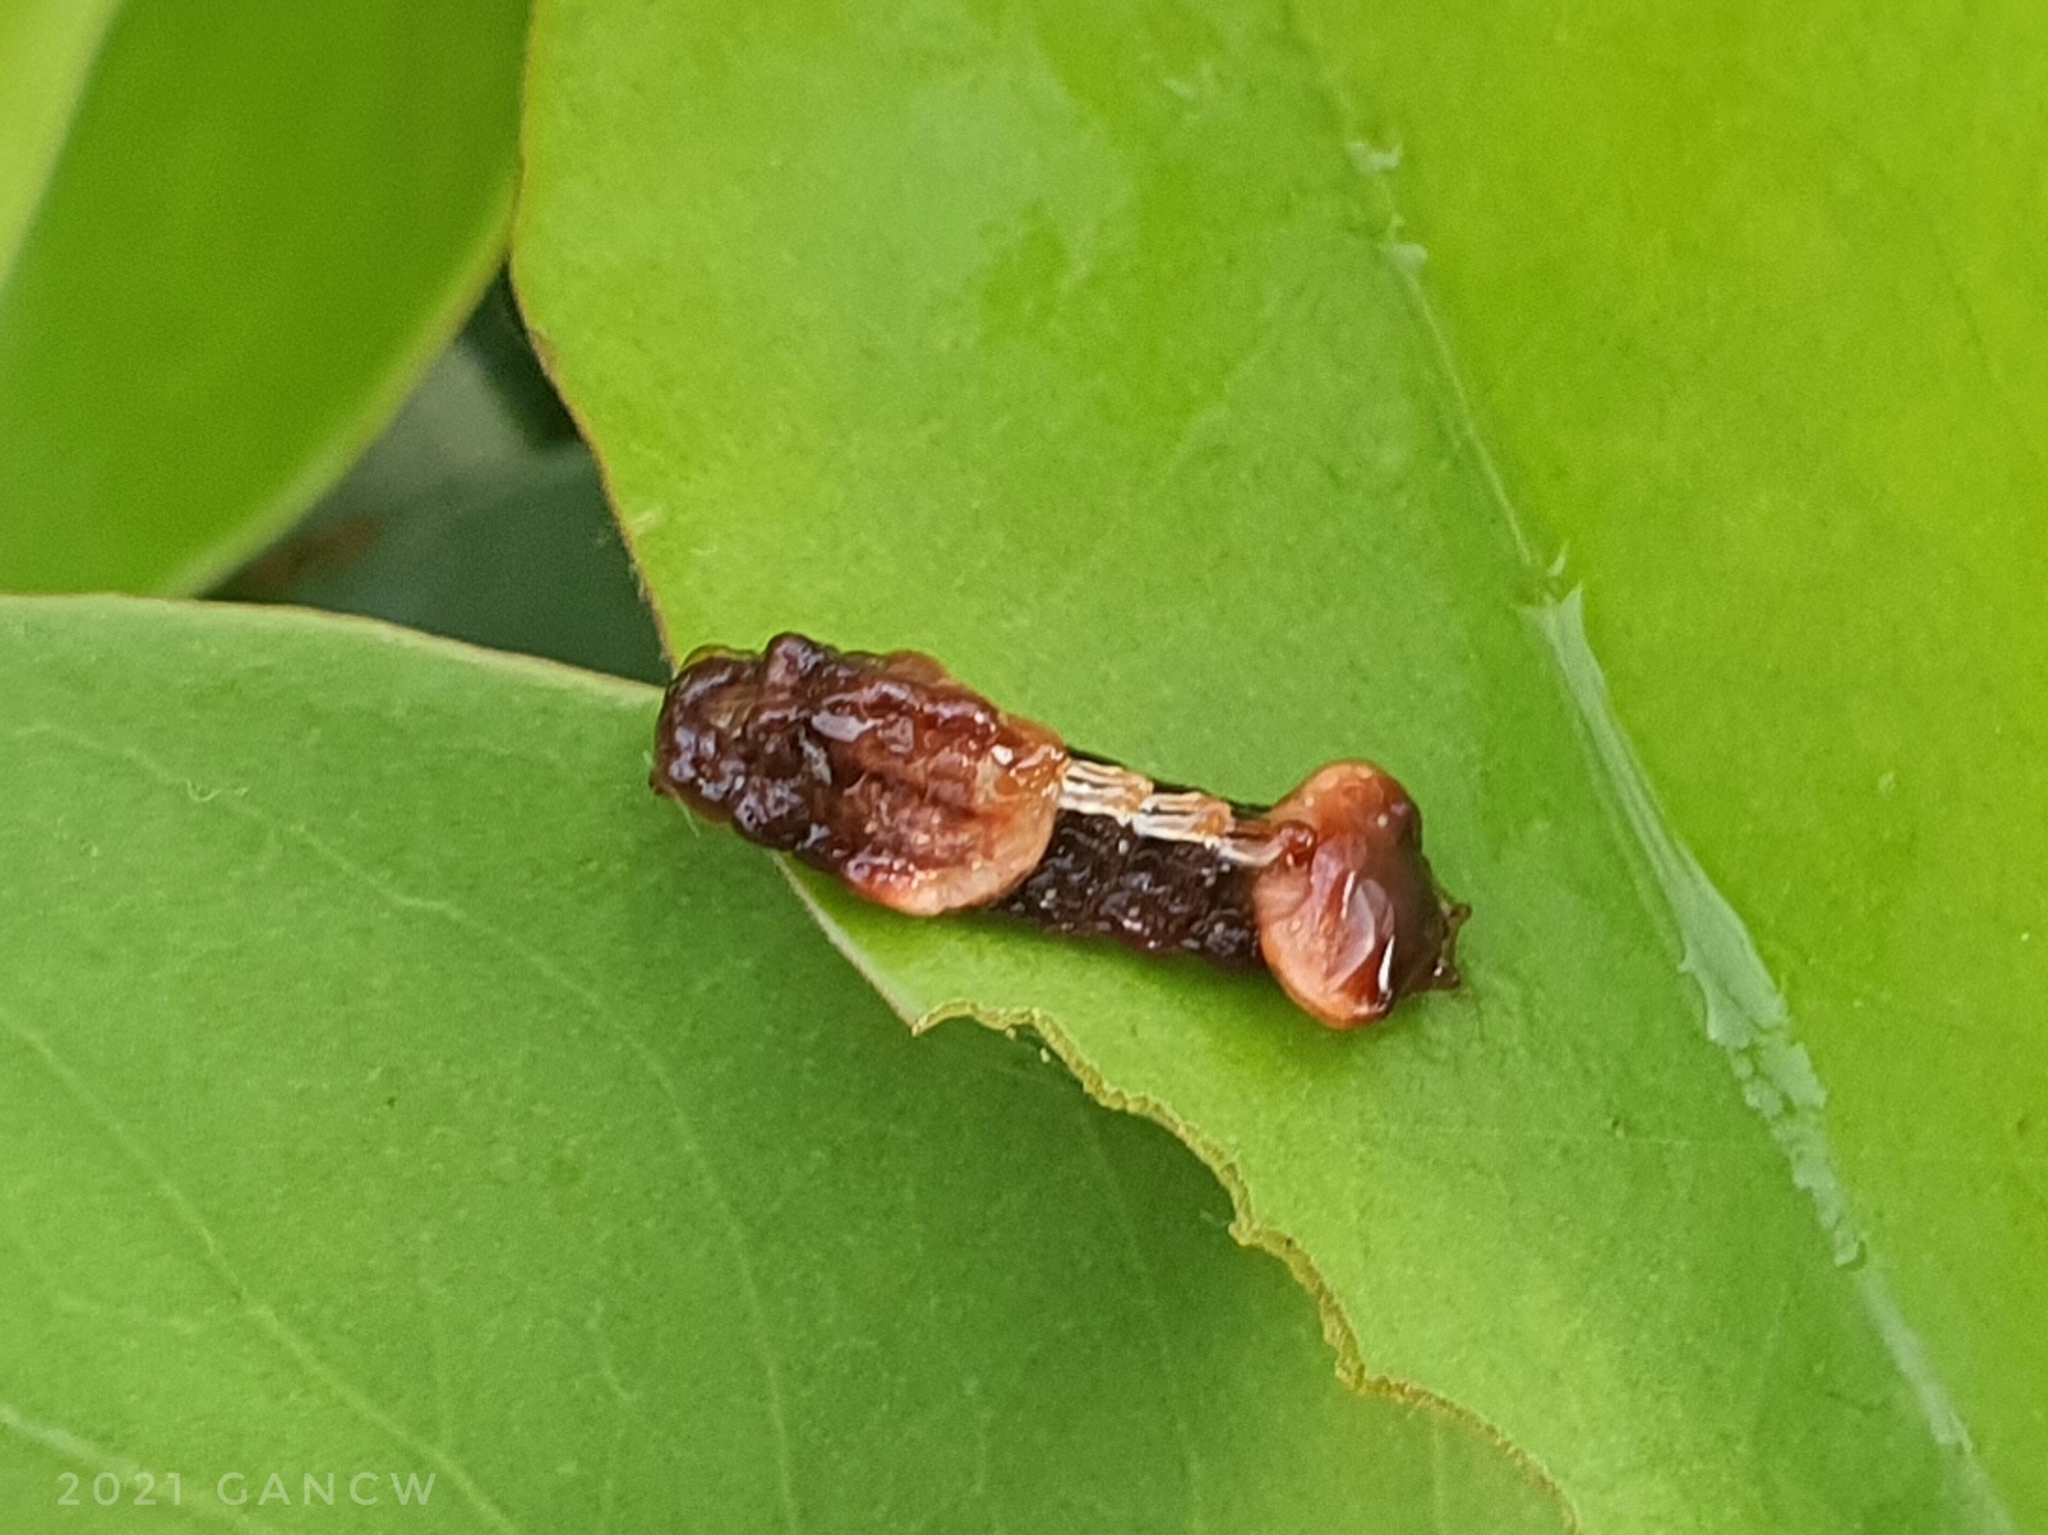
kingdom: Animalia
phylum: Arthropoda
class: Insecta
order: Lepidoptera
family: Lycaenidae
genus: Tajuria
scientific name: Tajuria mantra
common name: Felder's royal
